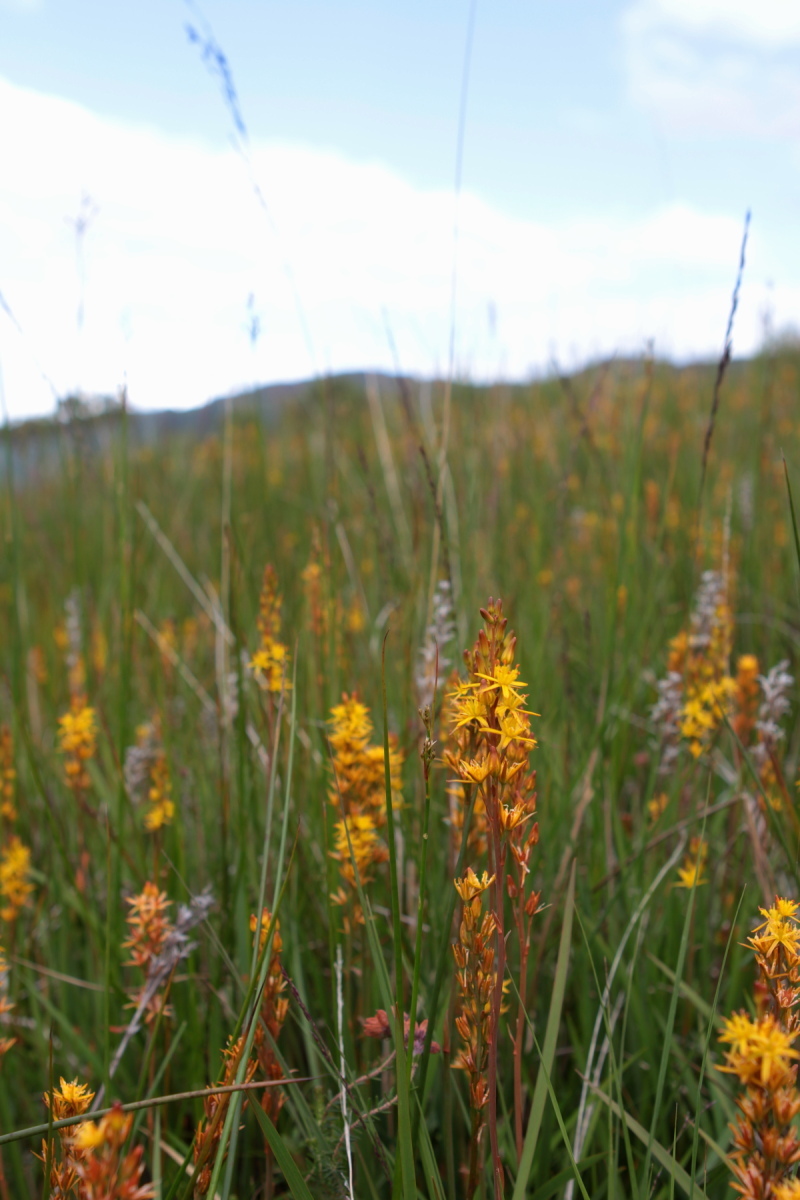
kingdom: Plantae
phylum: Tracheophyta
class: Liliopsida
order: Dioscoreales
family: Nartheciaceae
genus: Narthecium
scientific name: Narthecium ossifragum
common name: Bog asphodel
